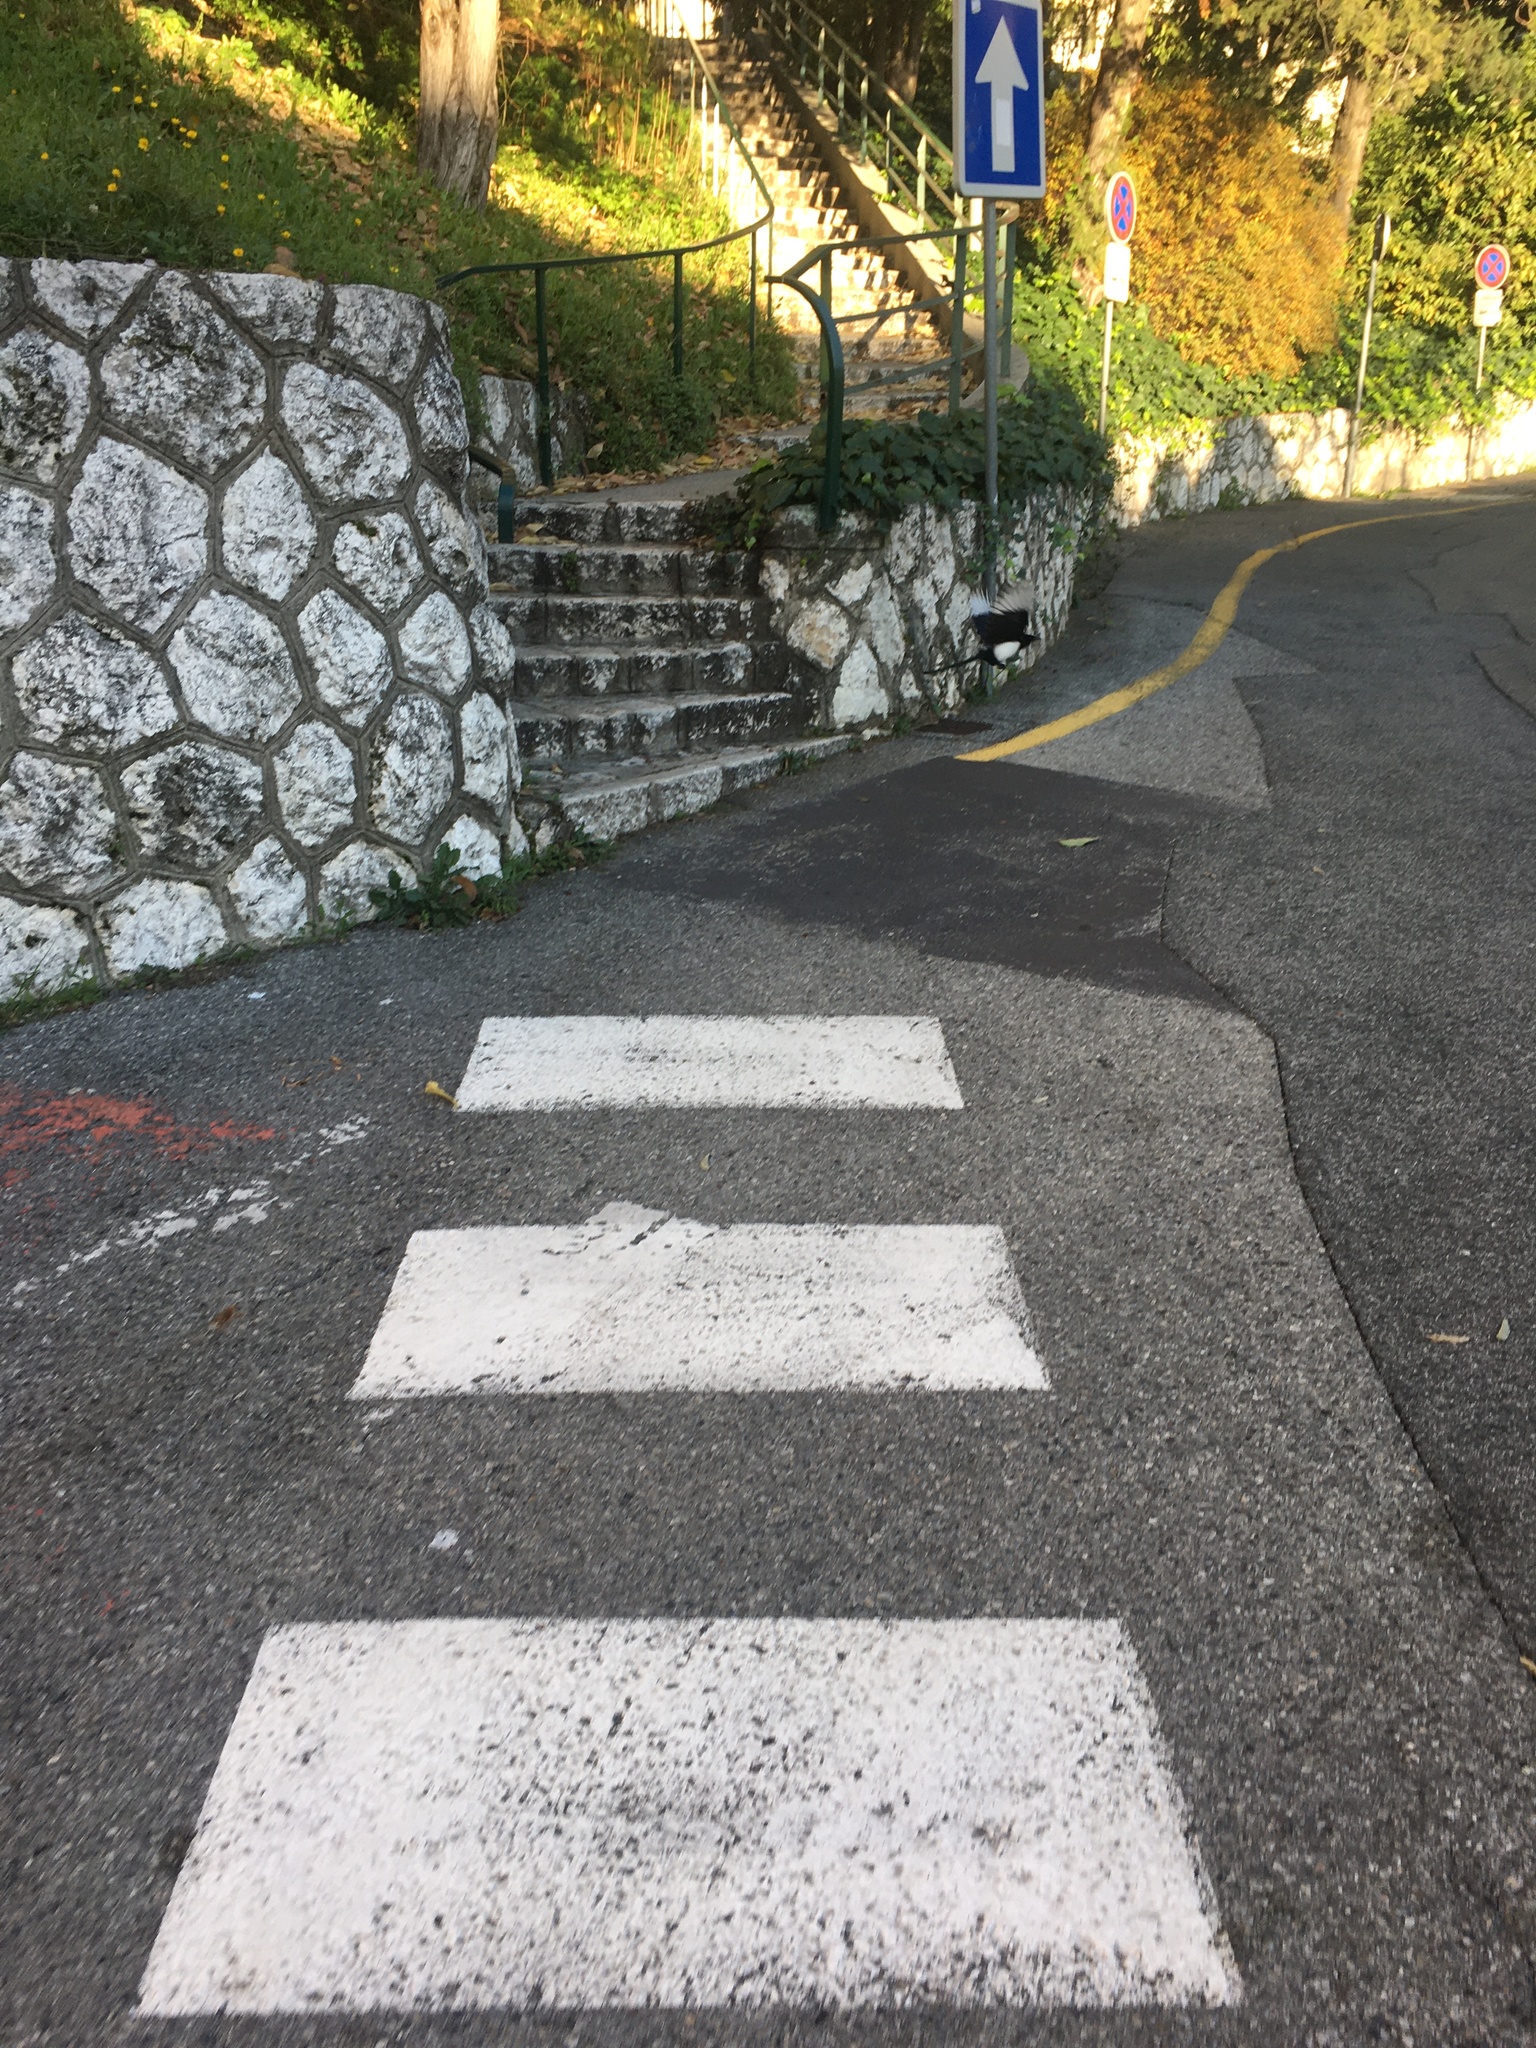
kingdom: Animalia
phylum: Chordata
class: Aves
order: Passeriformes
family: Corvidae
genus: Pica
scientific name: Pica pica
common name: Eurasian magpie
